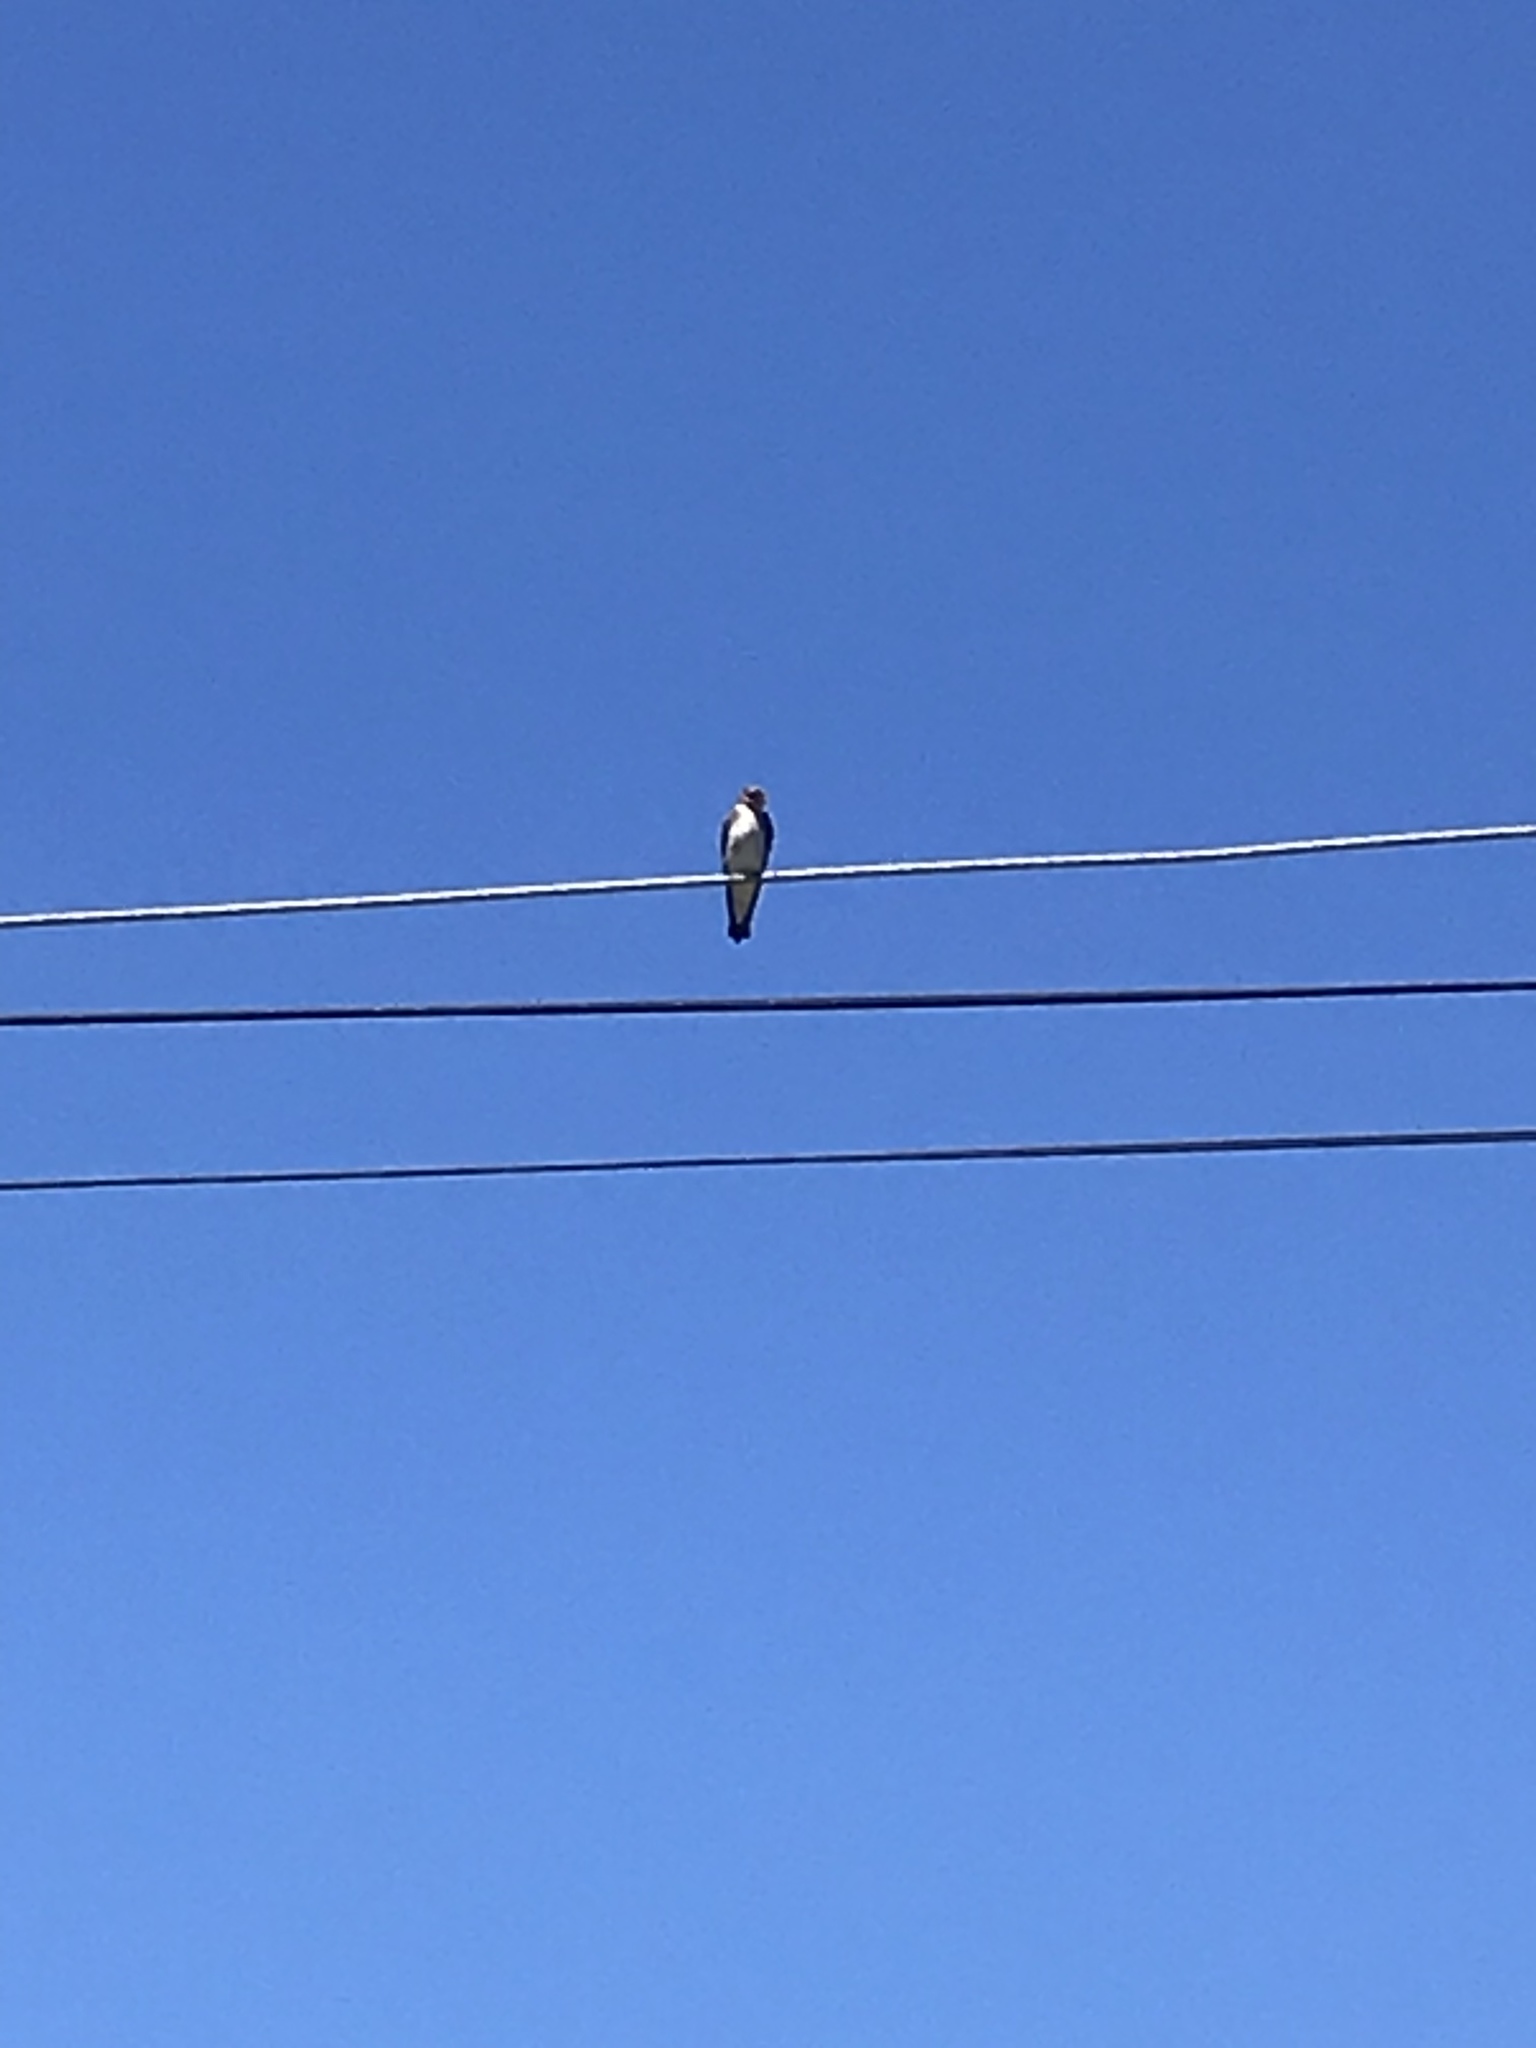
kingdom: Animalia
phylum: Chordata
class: Aves
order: Passeriformes
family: Hirundinidae
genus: Petrochelidon
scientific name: Petrochelidon pyrrhonota
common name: American cliff swallow
